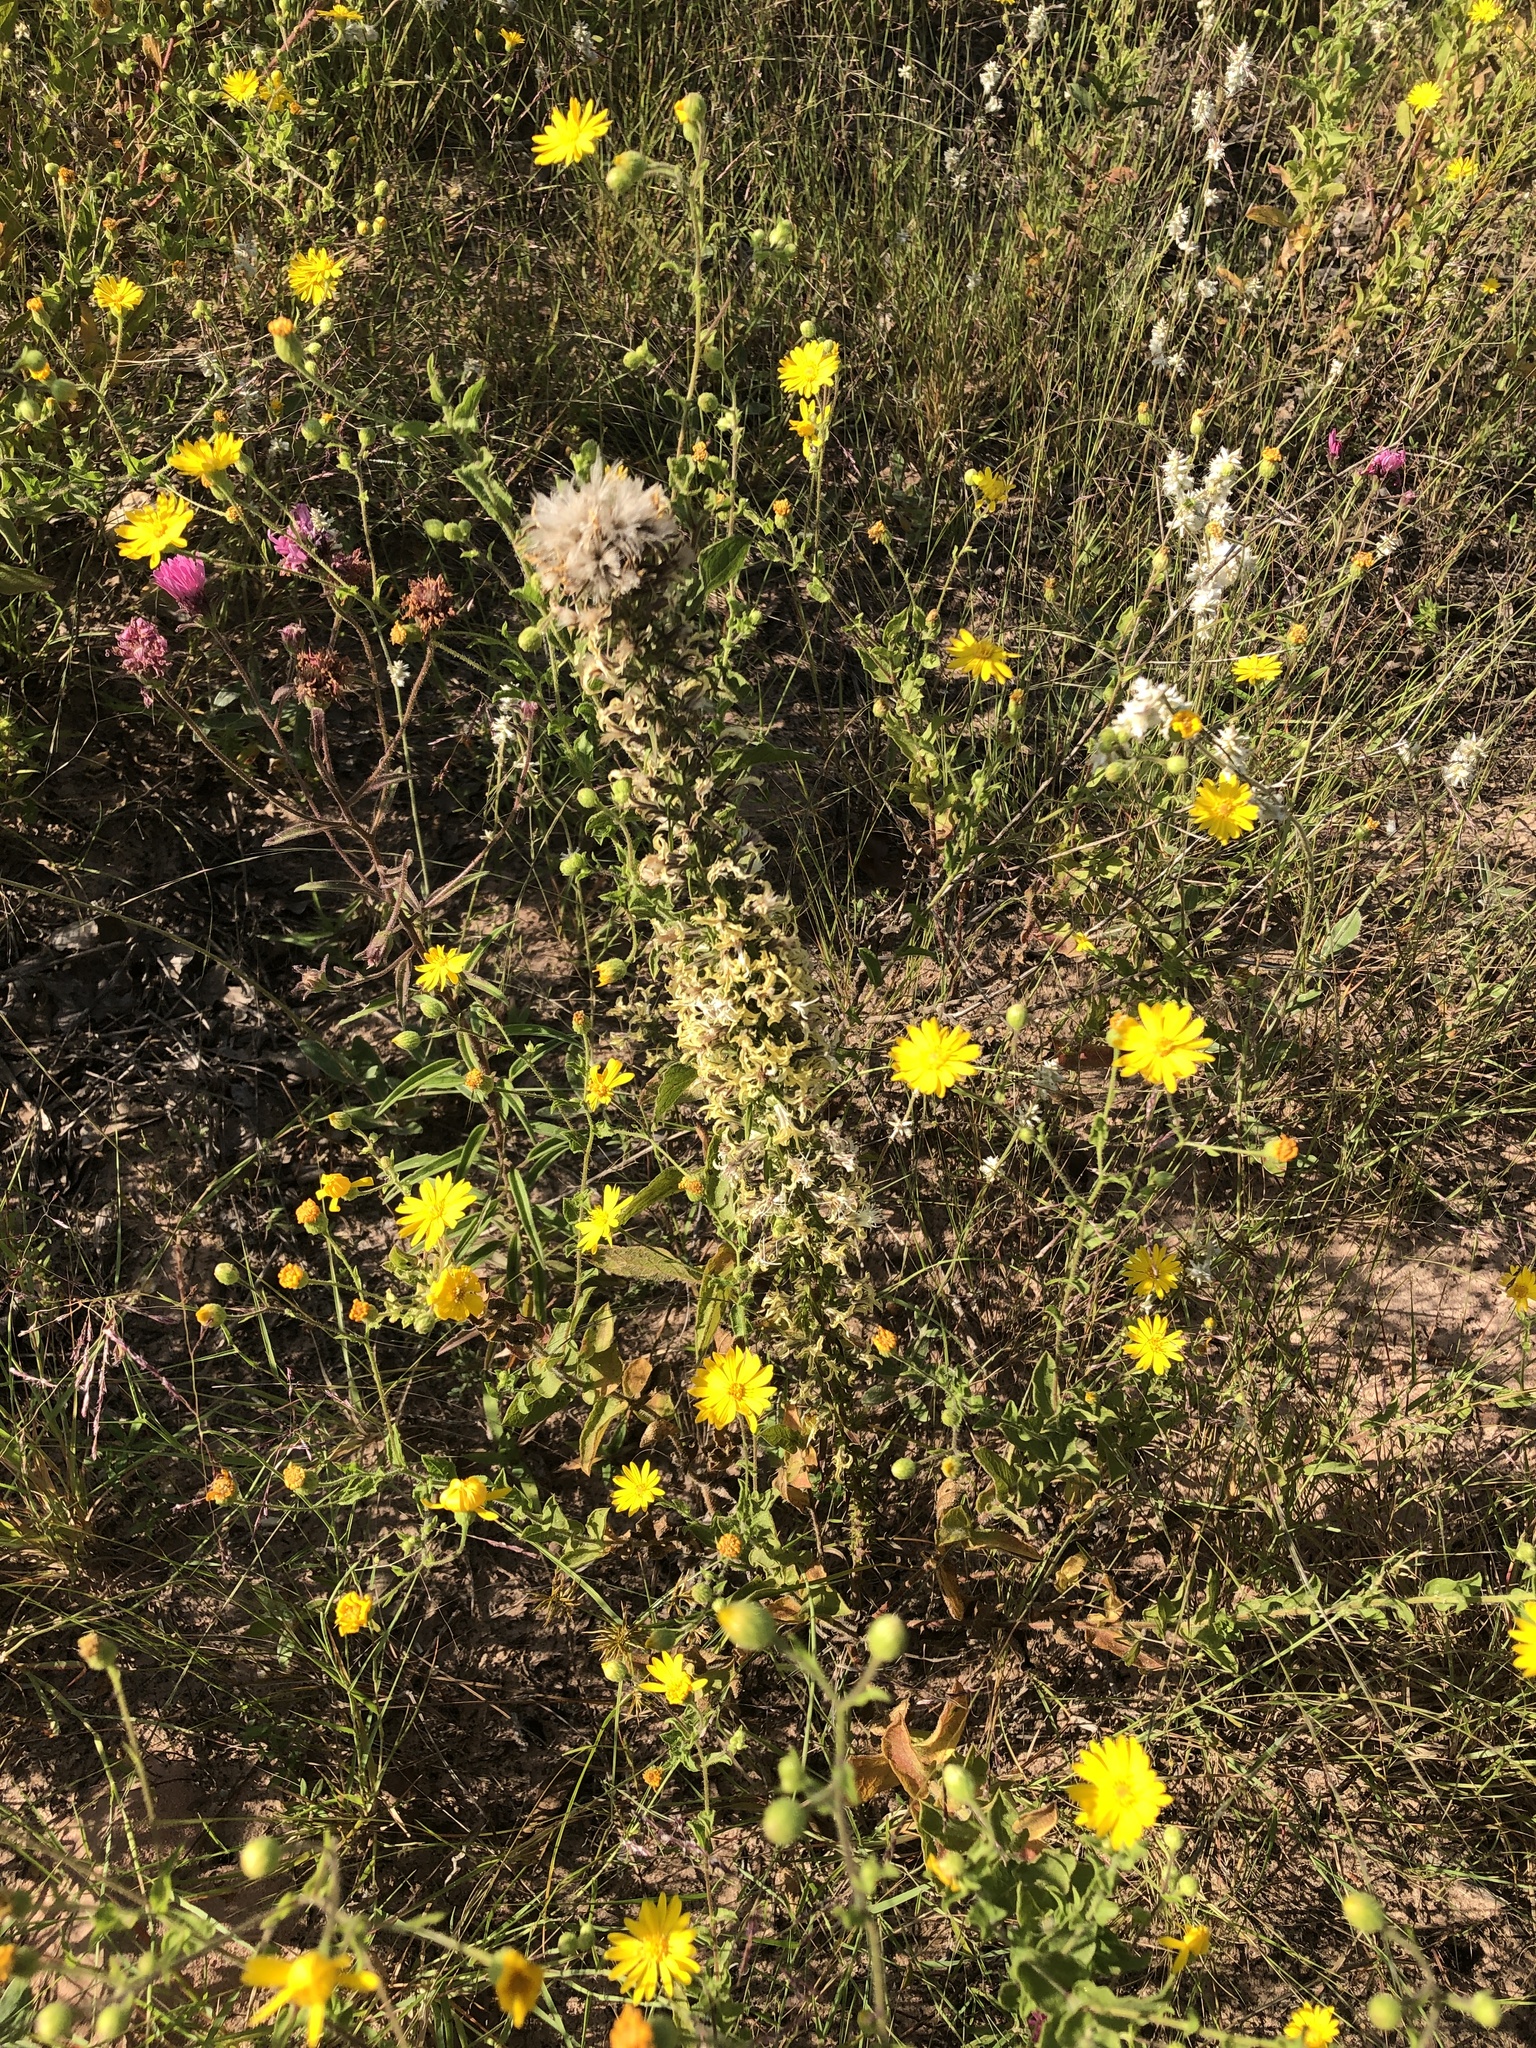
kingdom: Plantae
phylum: Tracheophyta
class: Magnoliopsida
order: Asterales
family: Asteraceae
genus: Liatris
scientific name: Liatris bridgesii
